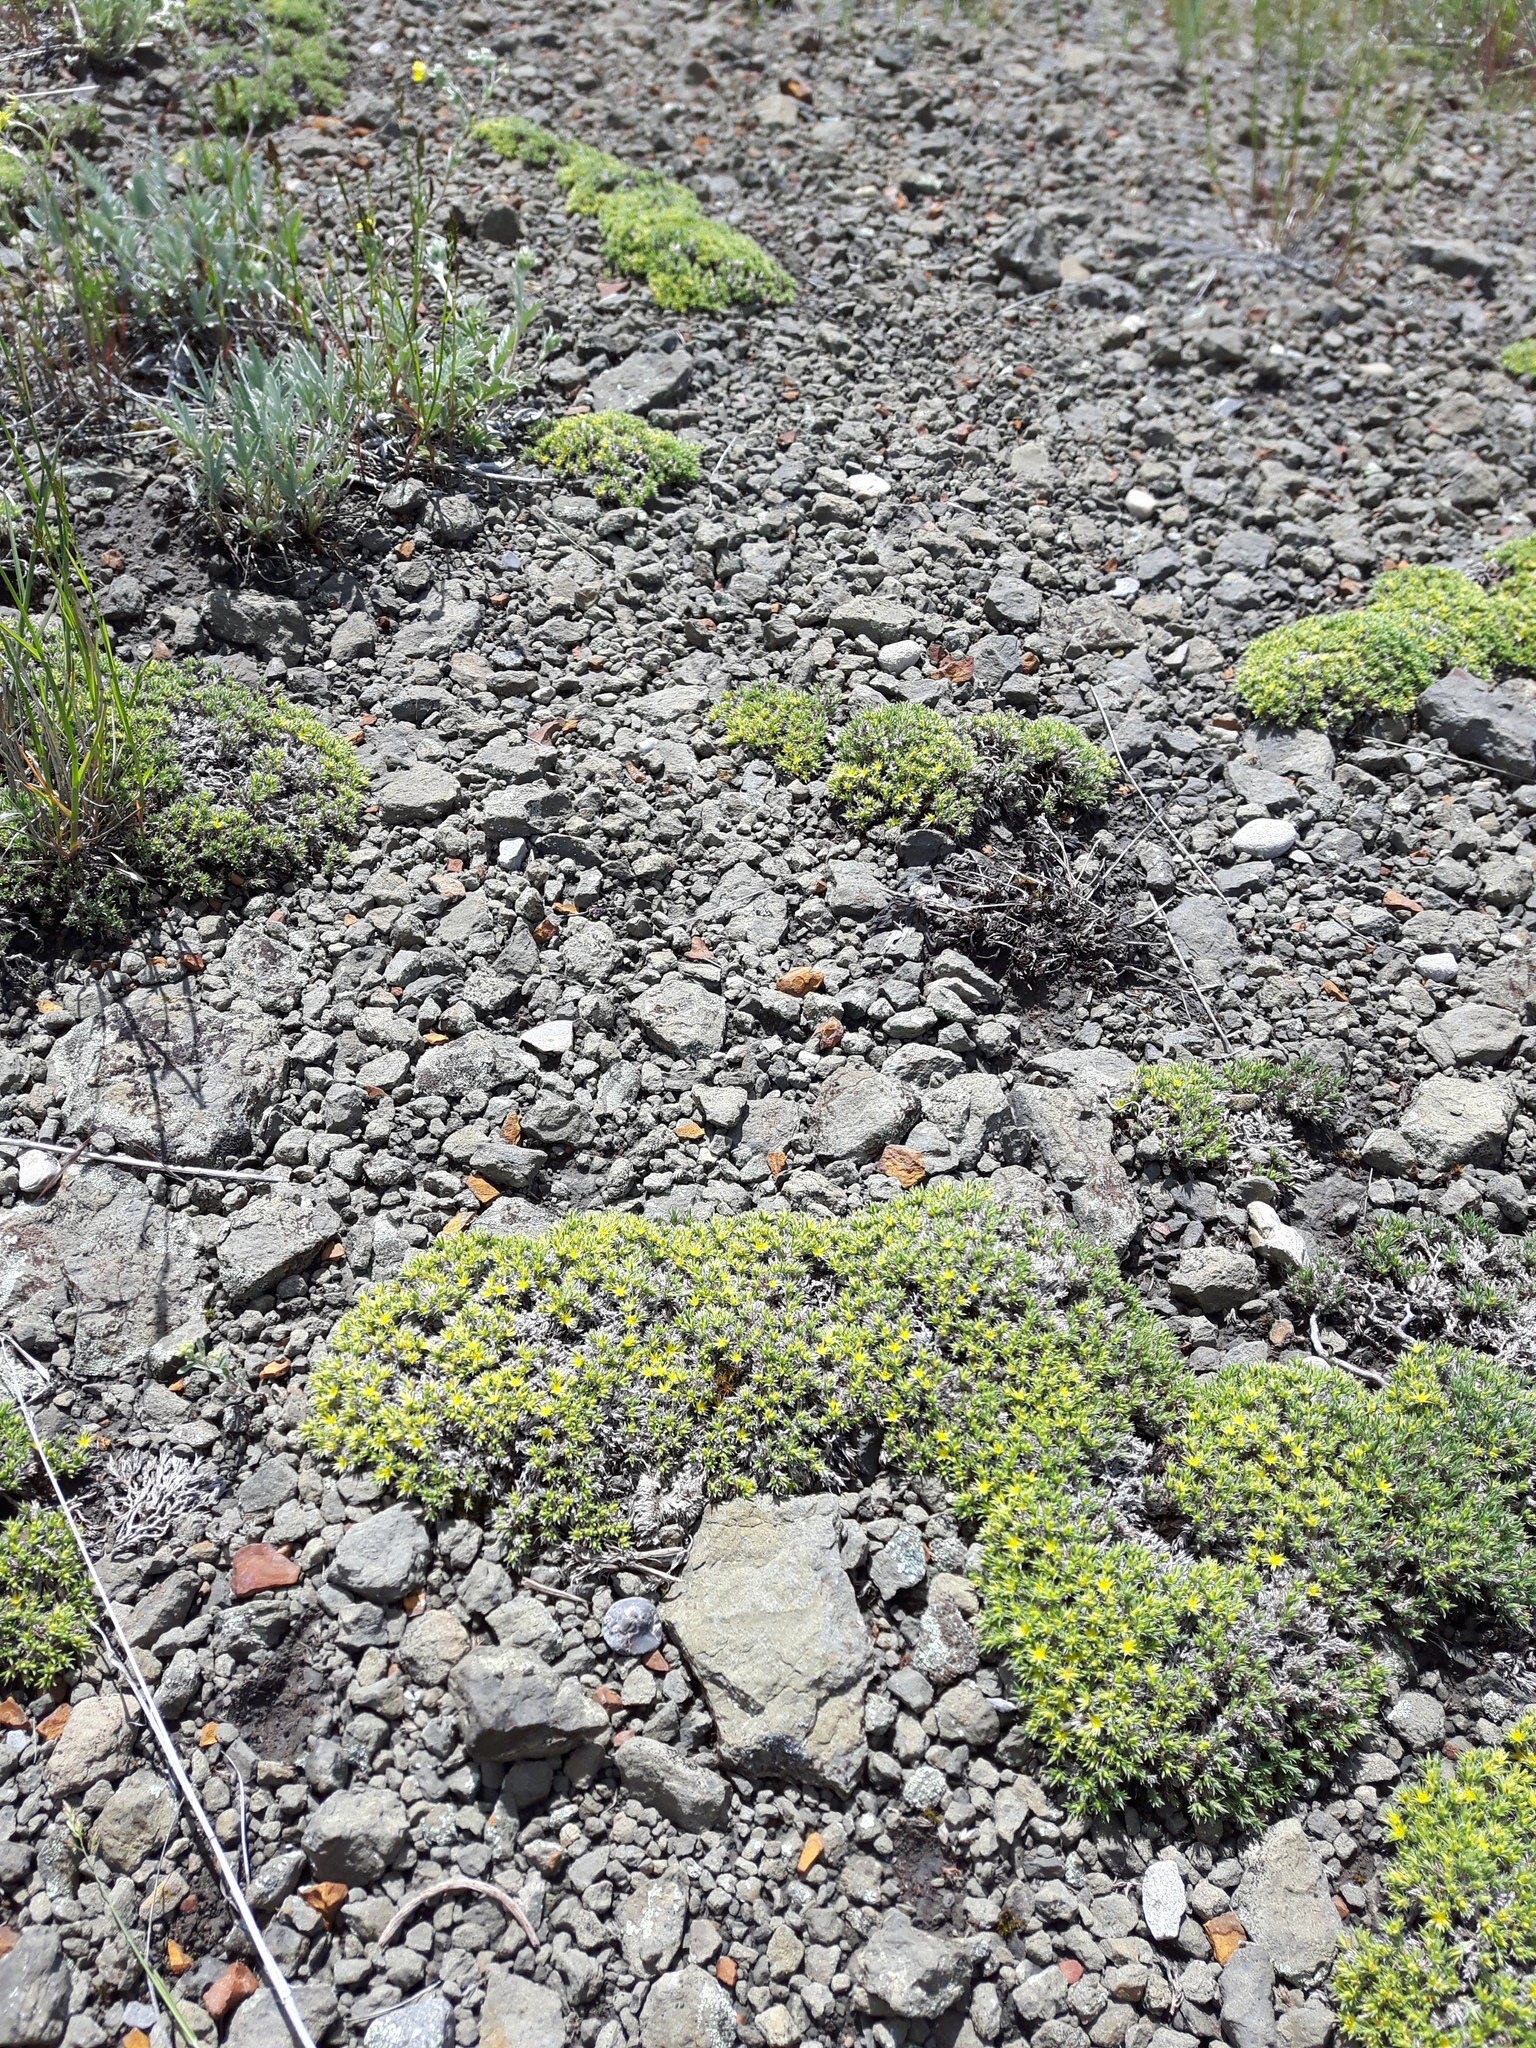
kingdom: Plantae
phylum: Tracheophyta
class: Magnoliopsida
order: Caryophyllales
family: Caryophyllaceae
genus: Paronychia
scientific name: Paronychia sessiliflora
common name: Creeping nailwort
